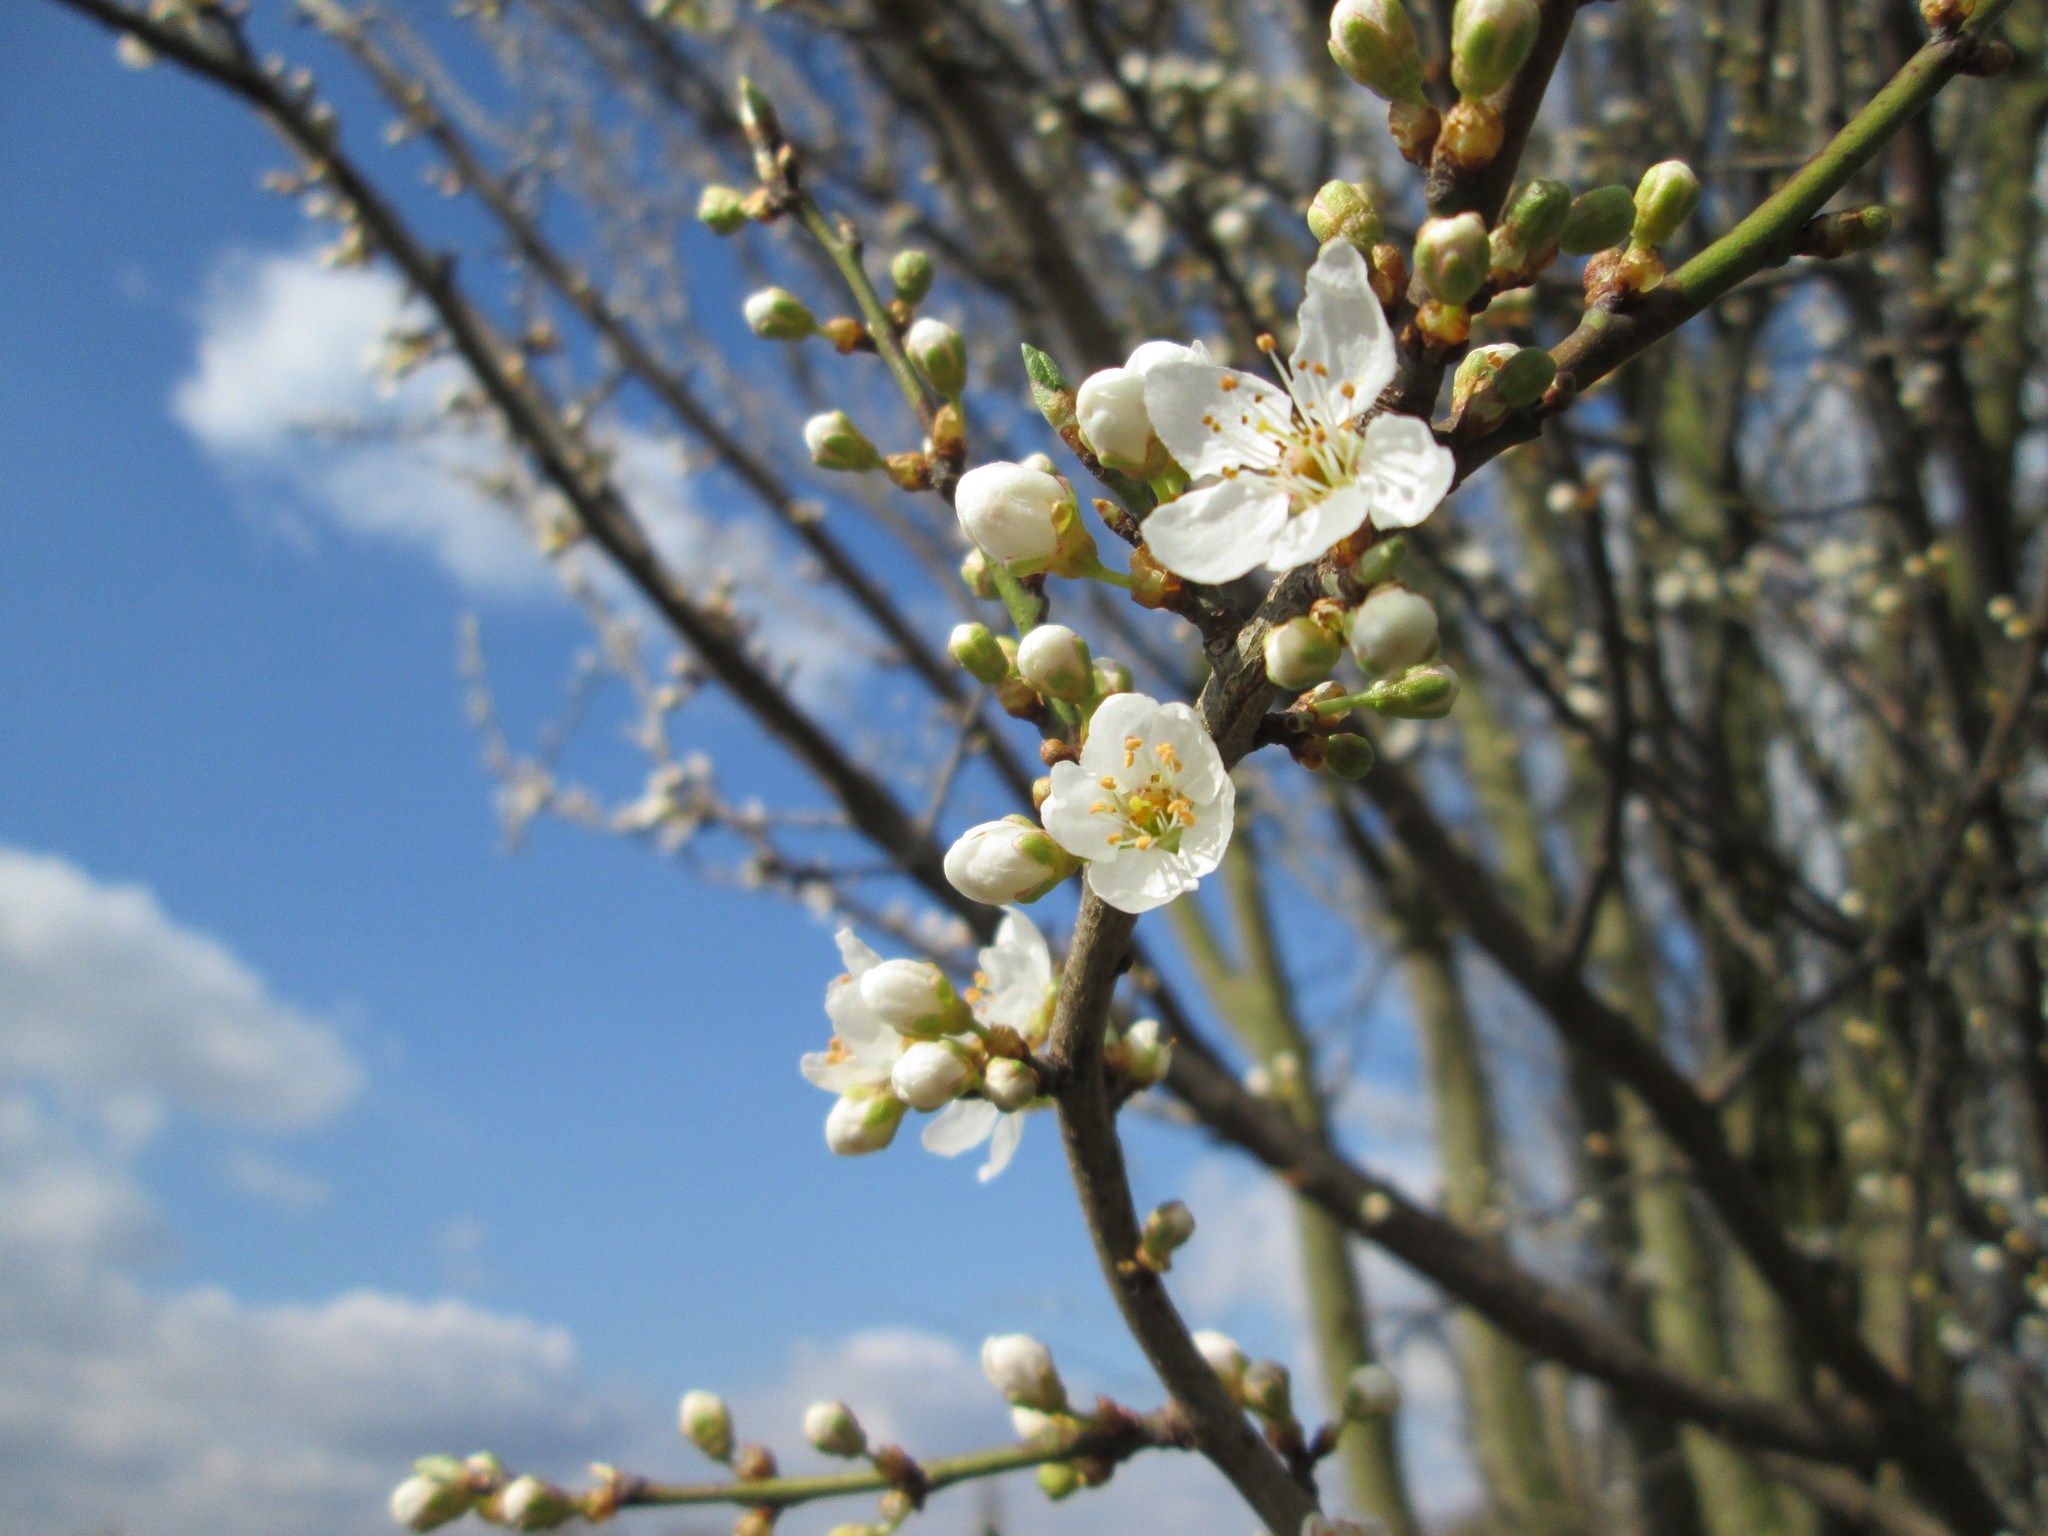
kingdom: Plantae
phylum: Tracheophyta
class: Magnoliopsida
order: Rosales
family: Rosaceae
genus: Prunus
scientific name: Prunus cerasifera
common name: Cherry plum
